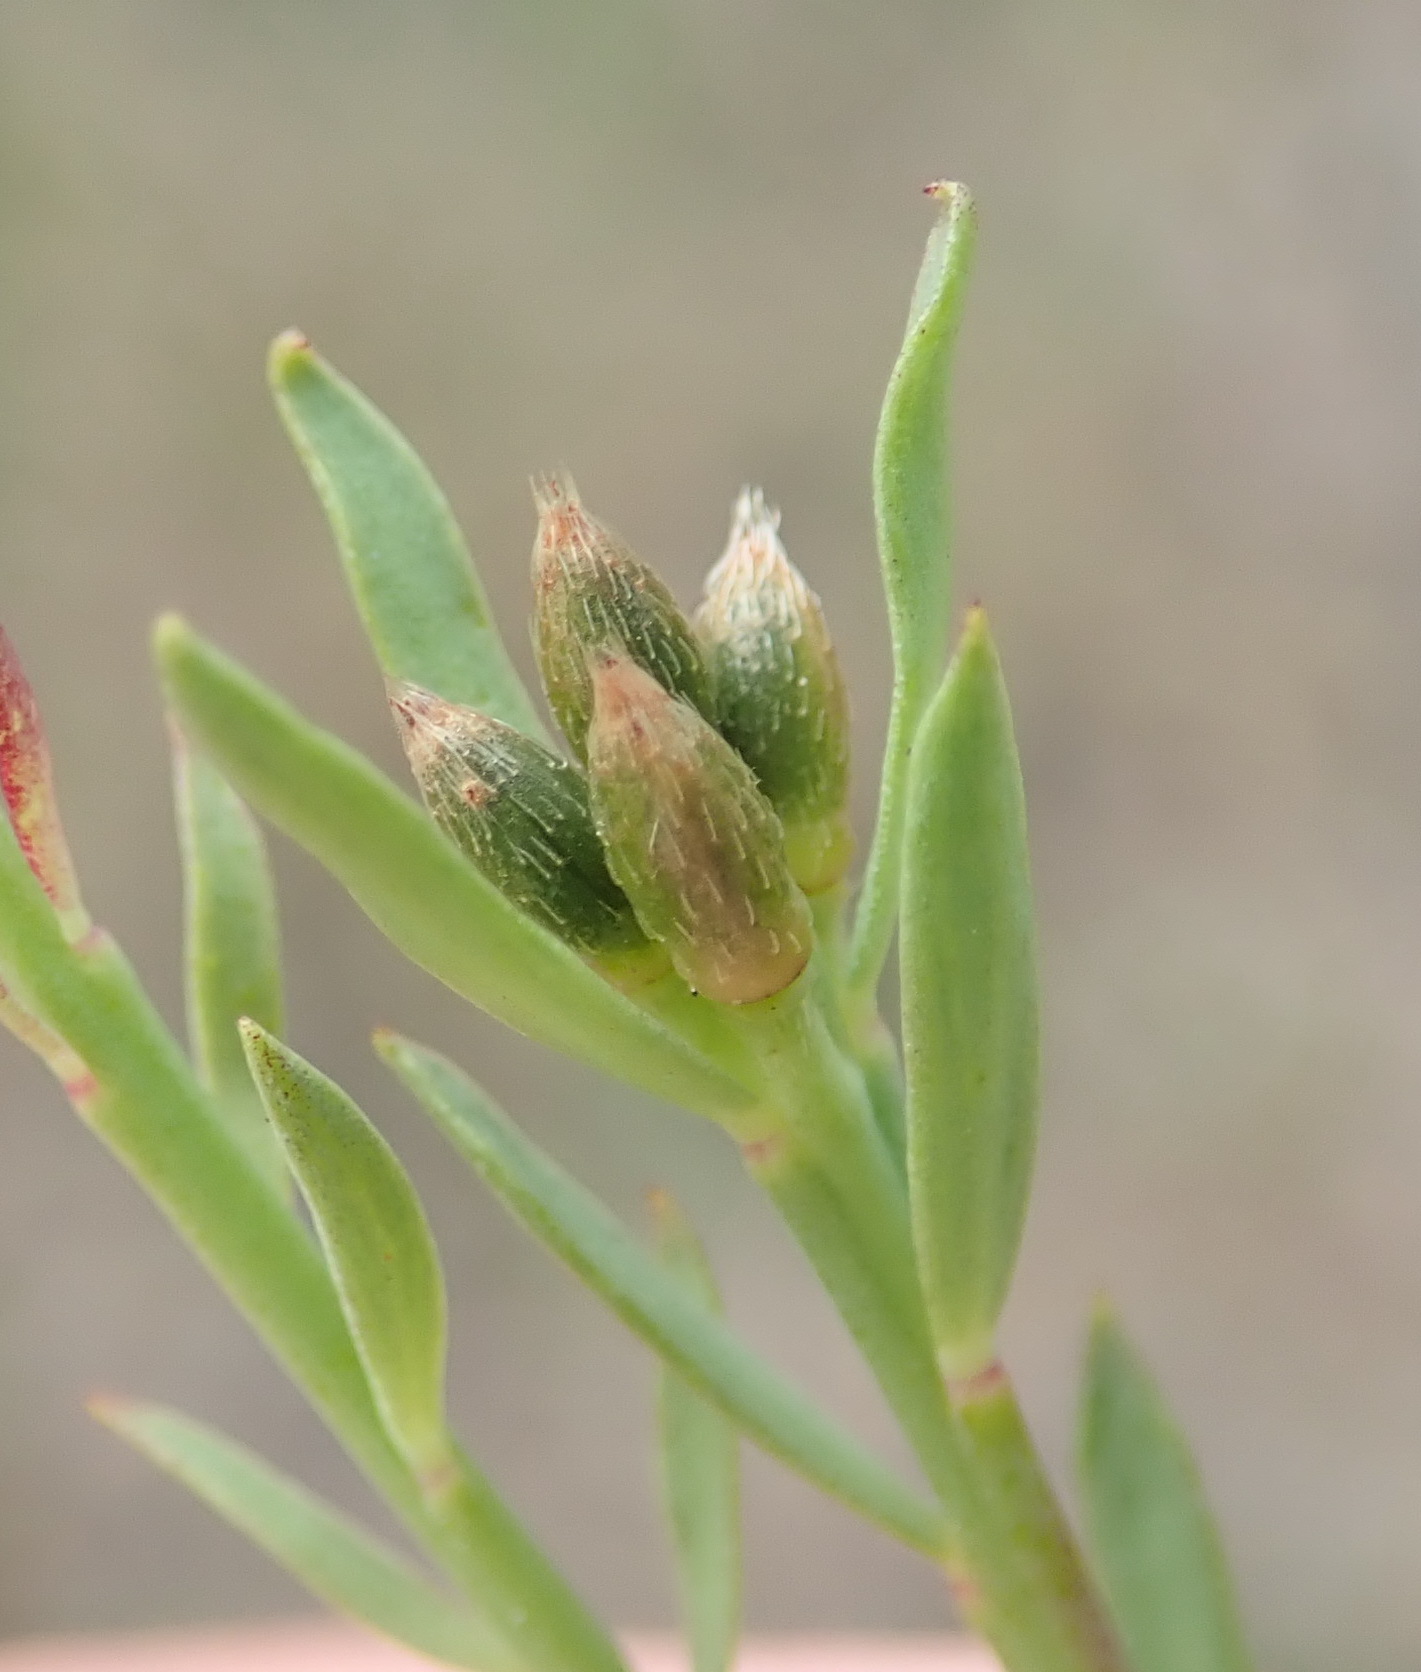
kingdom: Plantae
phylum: Tracheophyta
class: Magnoliopsida
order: Malvales
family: Thymelaeaceae
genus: Gnidia
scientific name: Gnidia squarrosa
